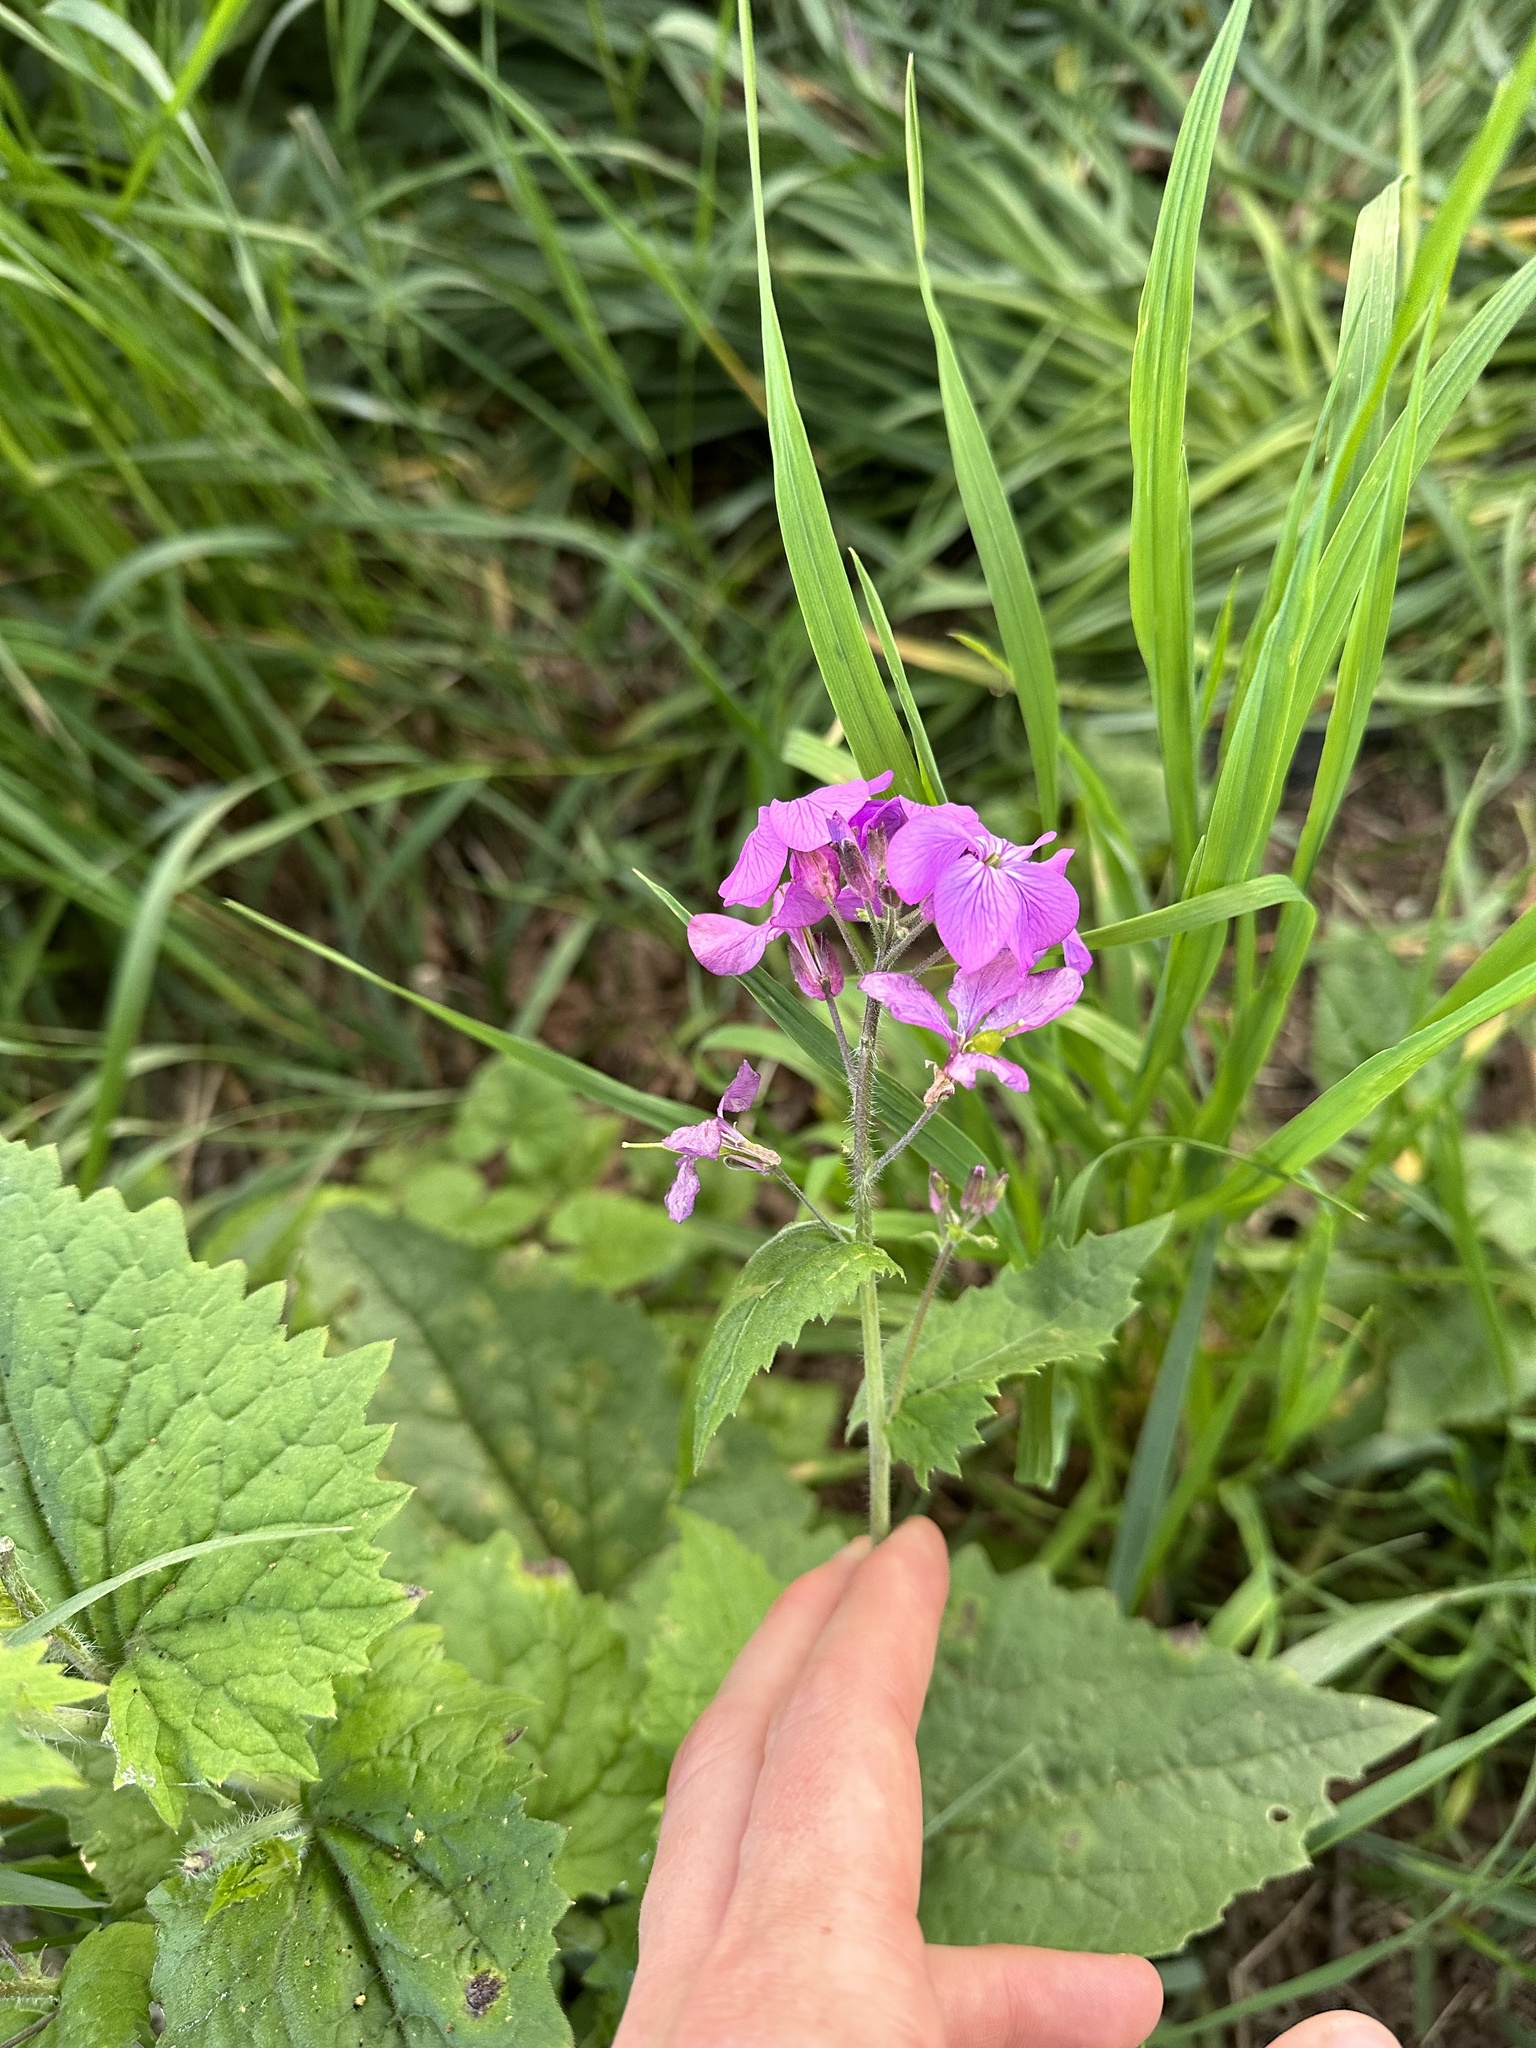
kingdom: Plantae
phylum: Tracheophyta
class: Magnoliopsida
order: Brassicales
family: Brassicaceae
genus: Lunaria
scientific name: Lunaria annua
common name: Honesty
